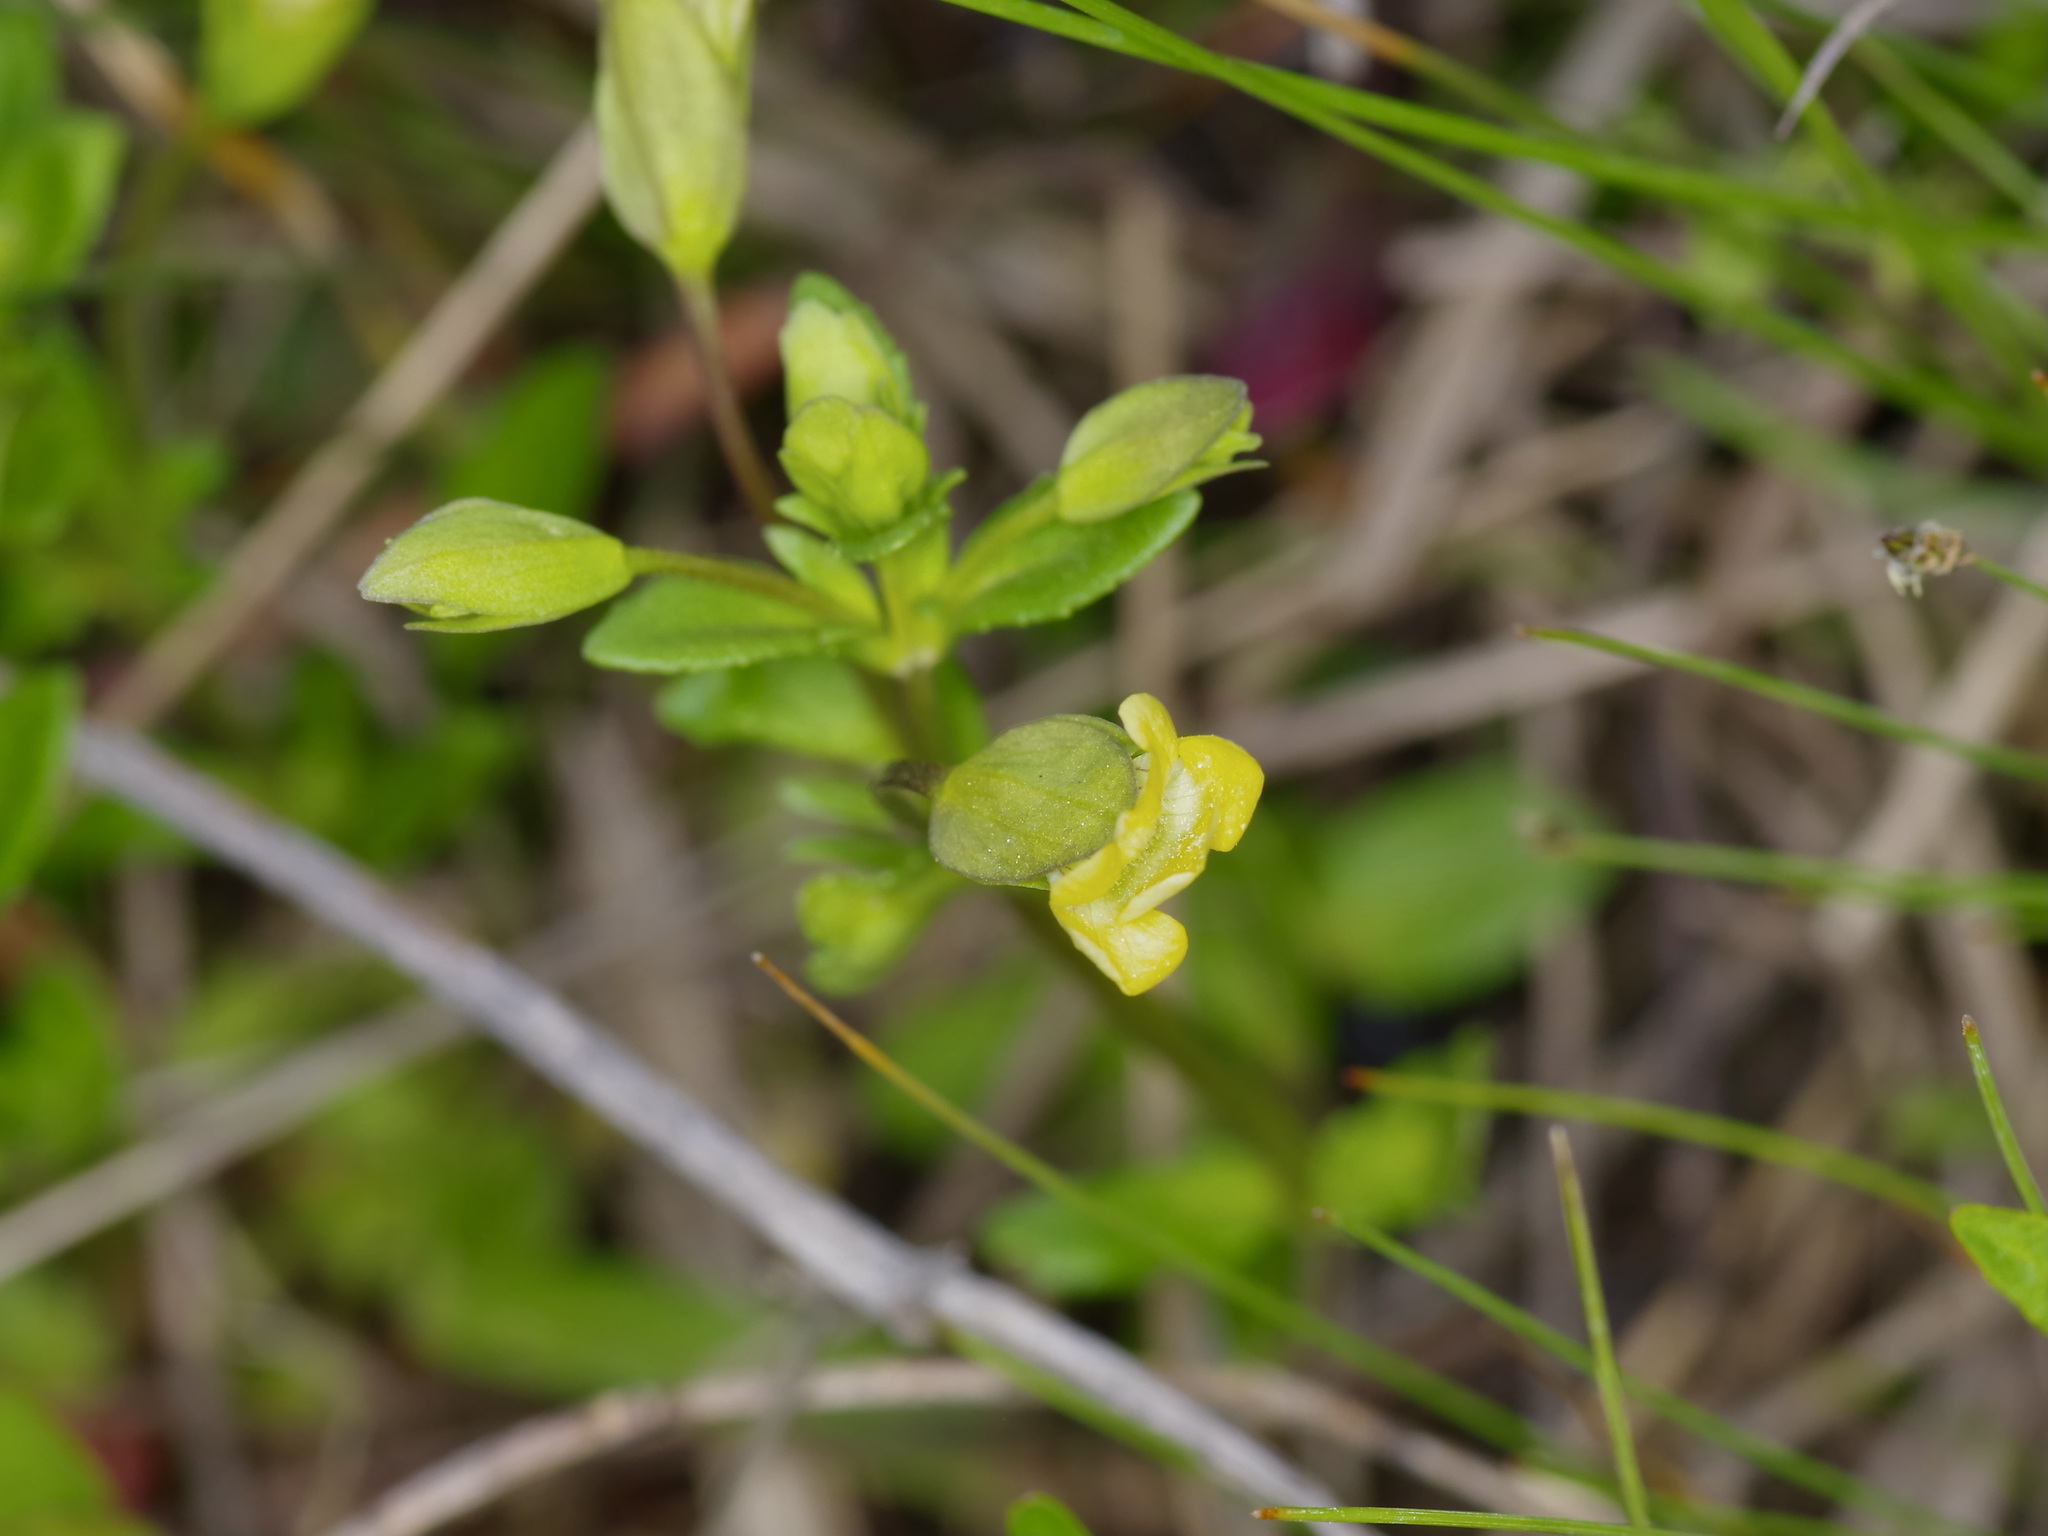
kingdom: Plantae
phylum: Tracheophyta
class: Magnoliopsida
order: Lamiales
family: Plantaginaceae
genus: Mecardonia
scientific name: Mecardonia procumbens
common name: Baby jump-up
